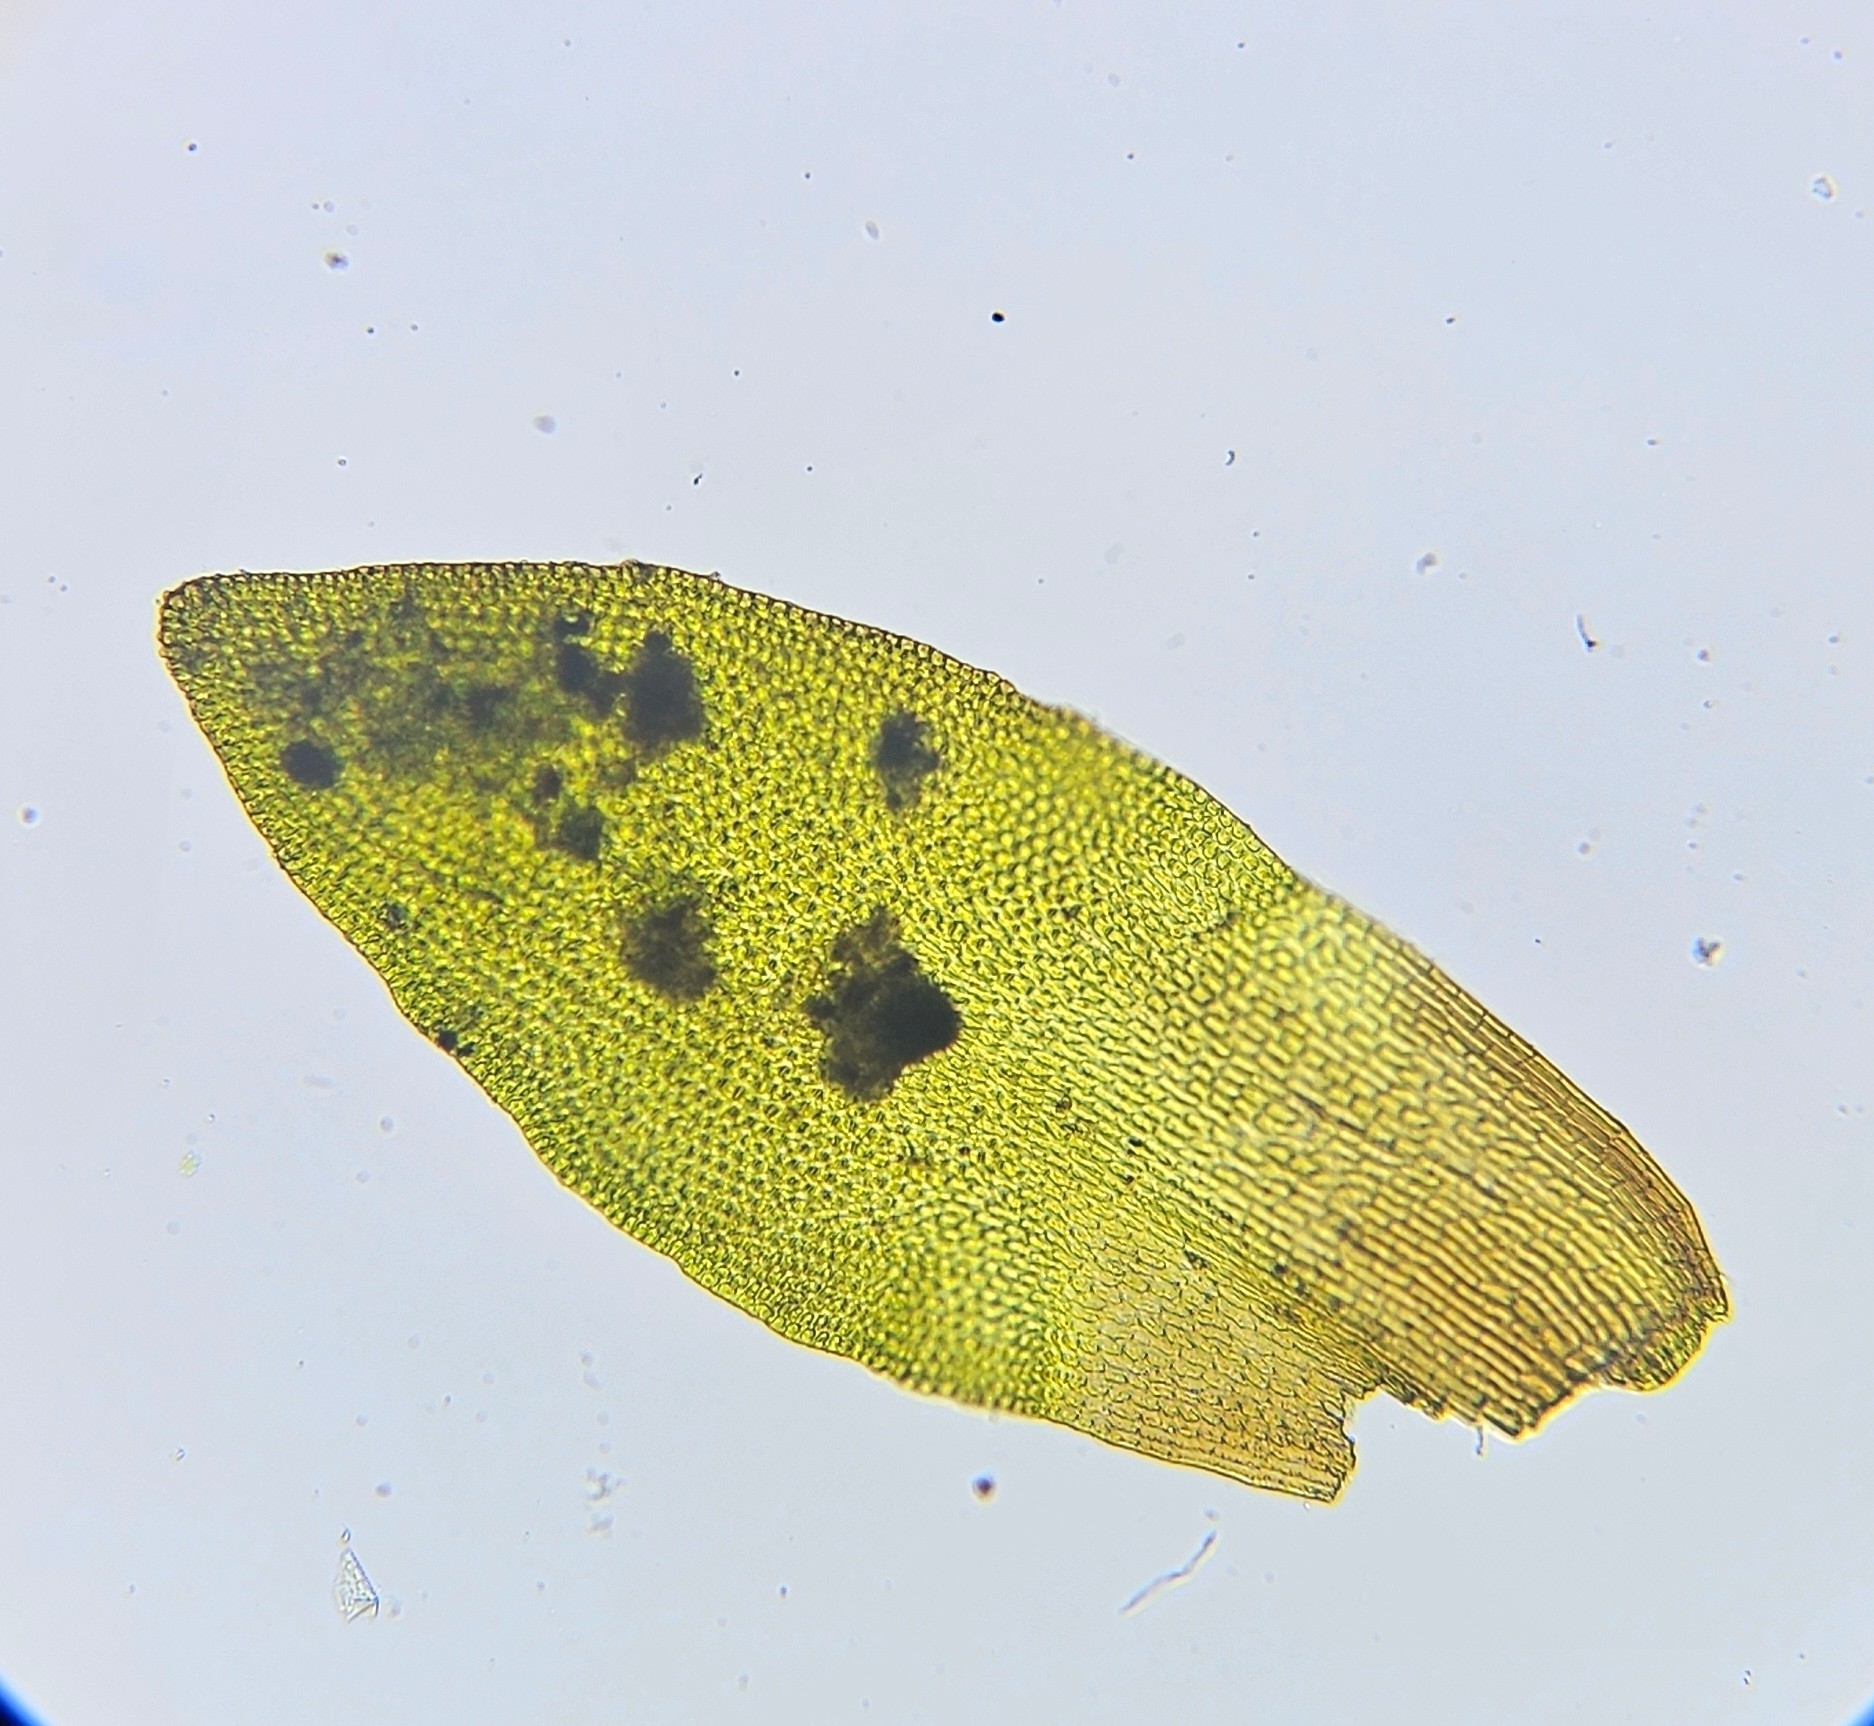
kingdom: Plantae
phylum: Bryophyta
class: Andreaeopsida
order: Andreaeales
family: Andreaeaceae
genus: Andreaea
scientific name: Andreaea rupestris
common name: Black rock moss
